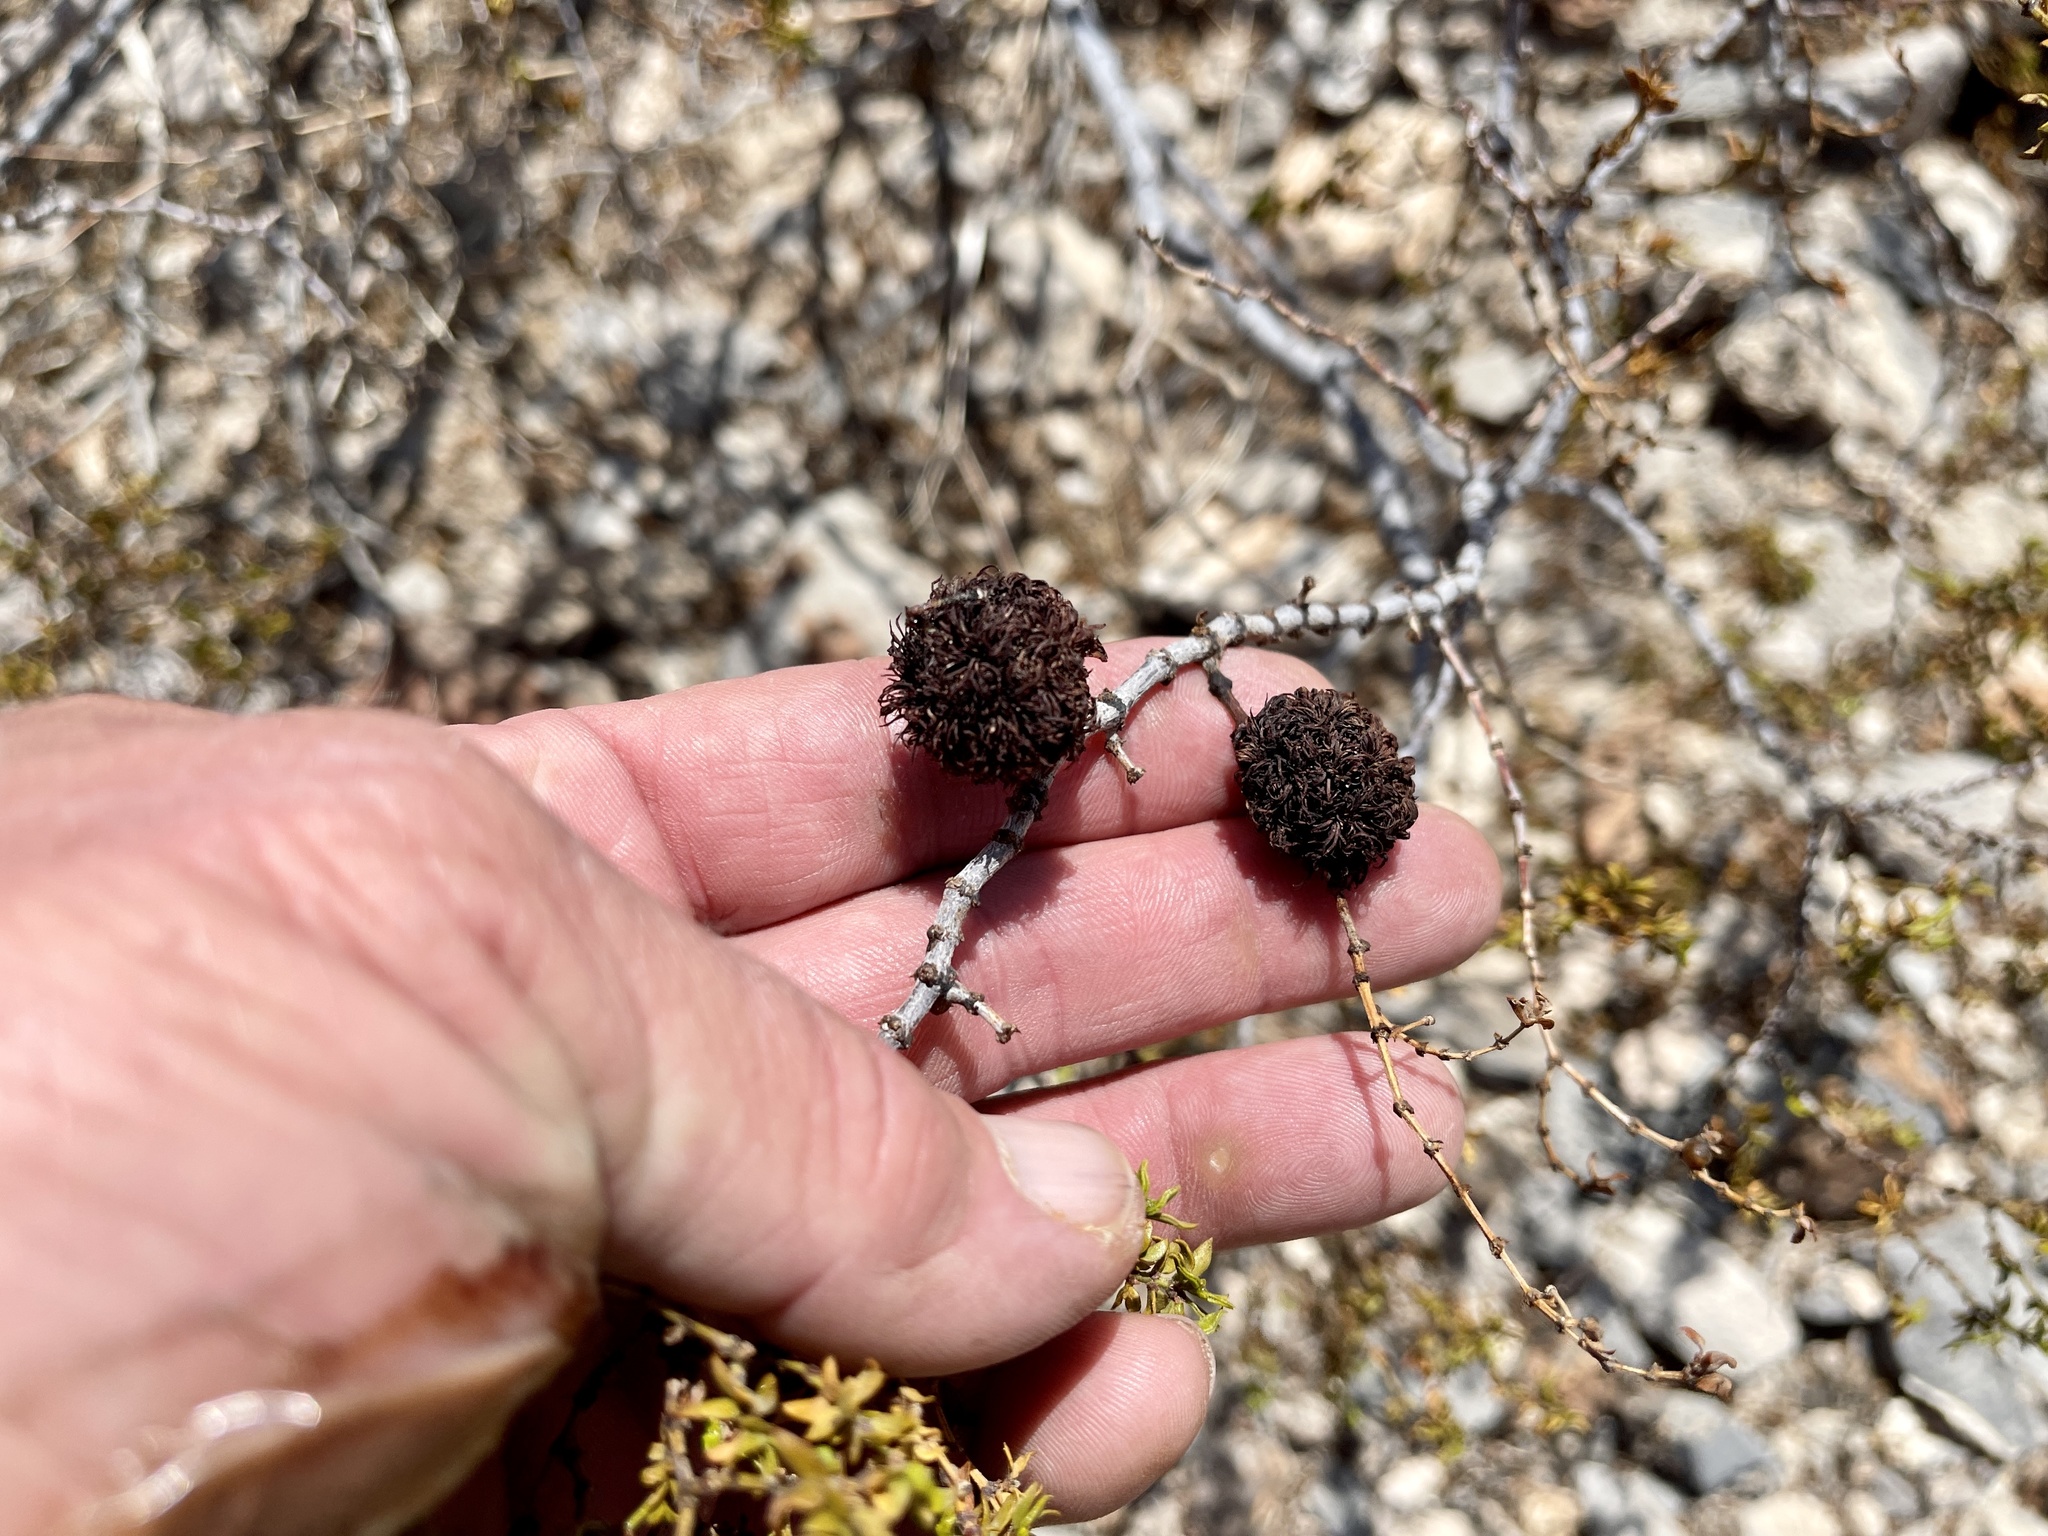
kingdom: Animalia
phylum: Arthropoda
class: Insecta
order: Diptera
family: Cecidomyiidae
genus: Asphondylia
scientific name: Asphondylia auripila
